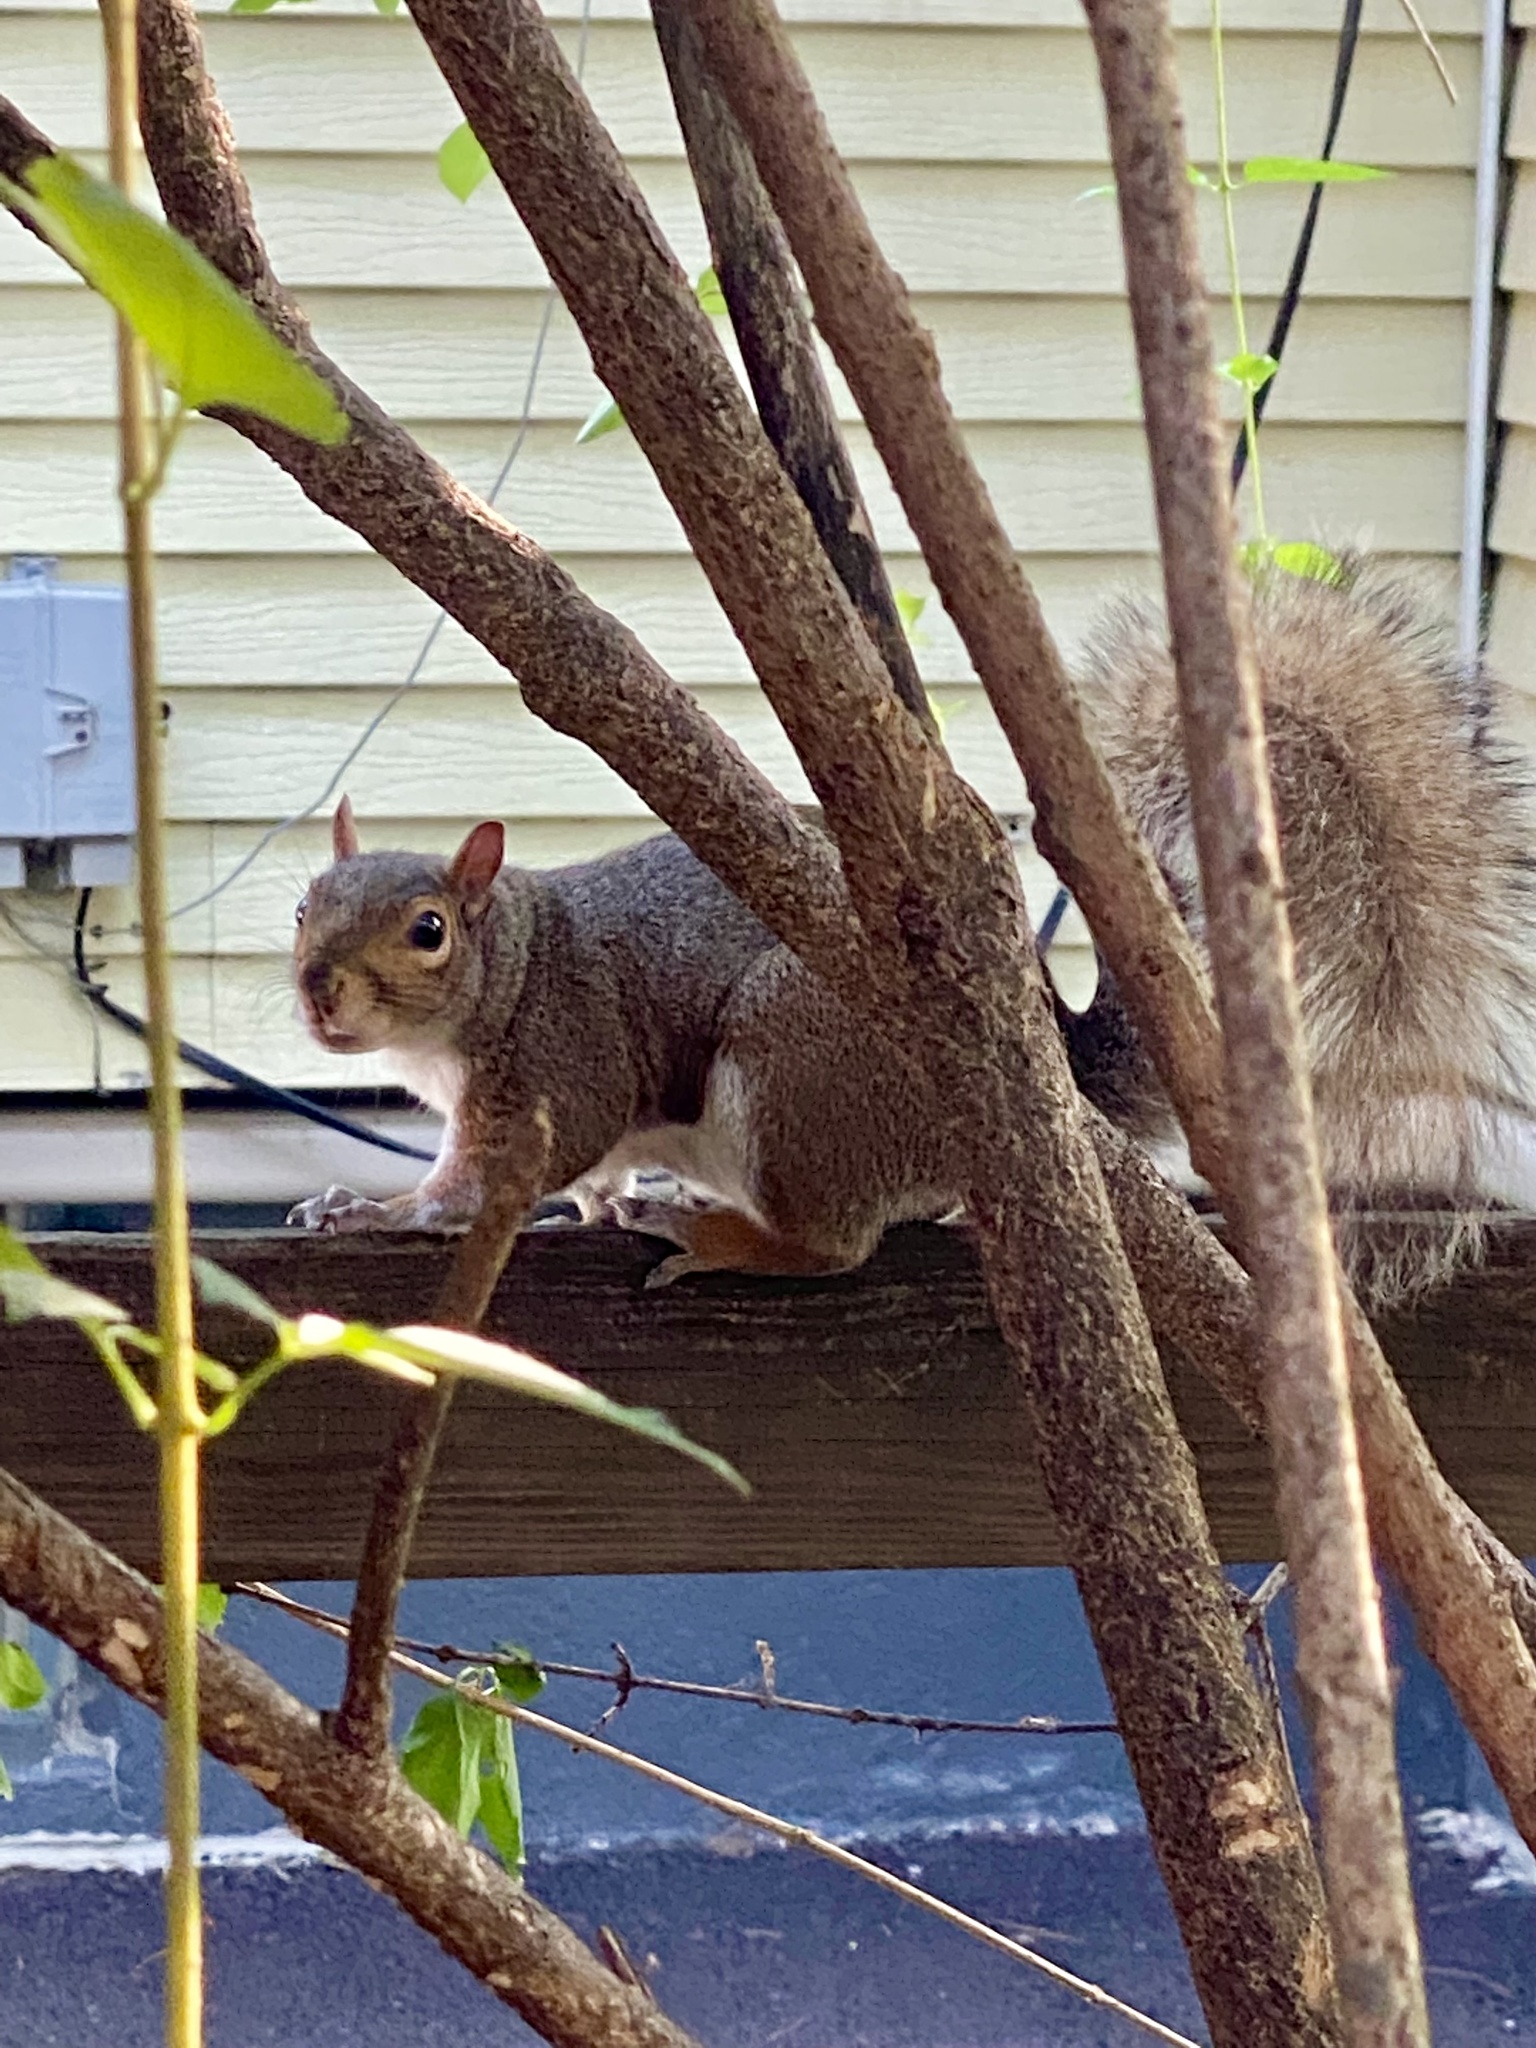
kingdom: Animalia
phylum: Chordata
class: Mammalia
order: Rodentia
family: Sciuridae
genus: Sciurus
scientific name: Sciurus carolinensis
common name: Eastern gray squirrel
